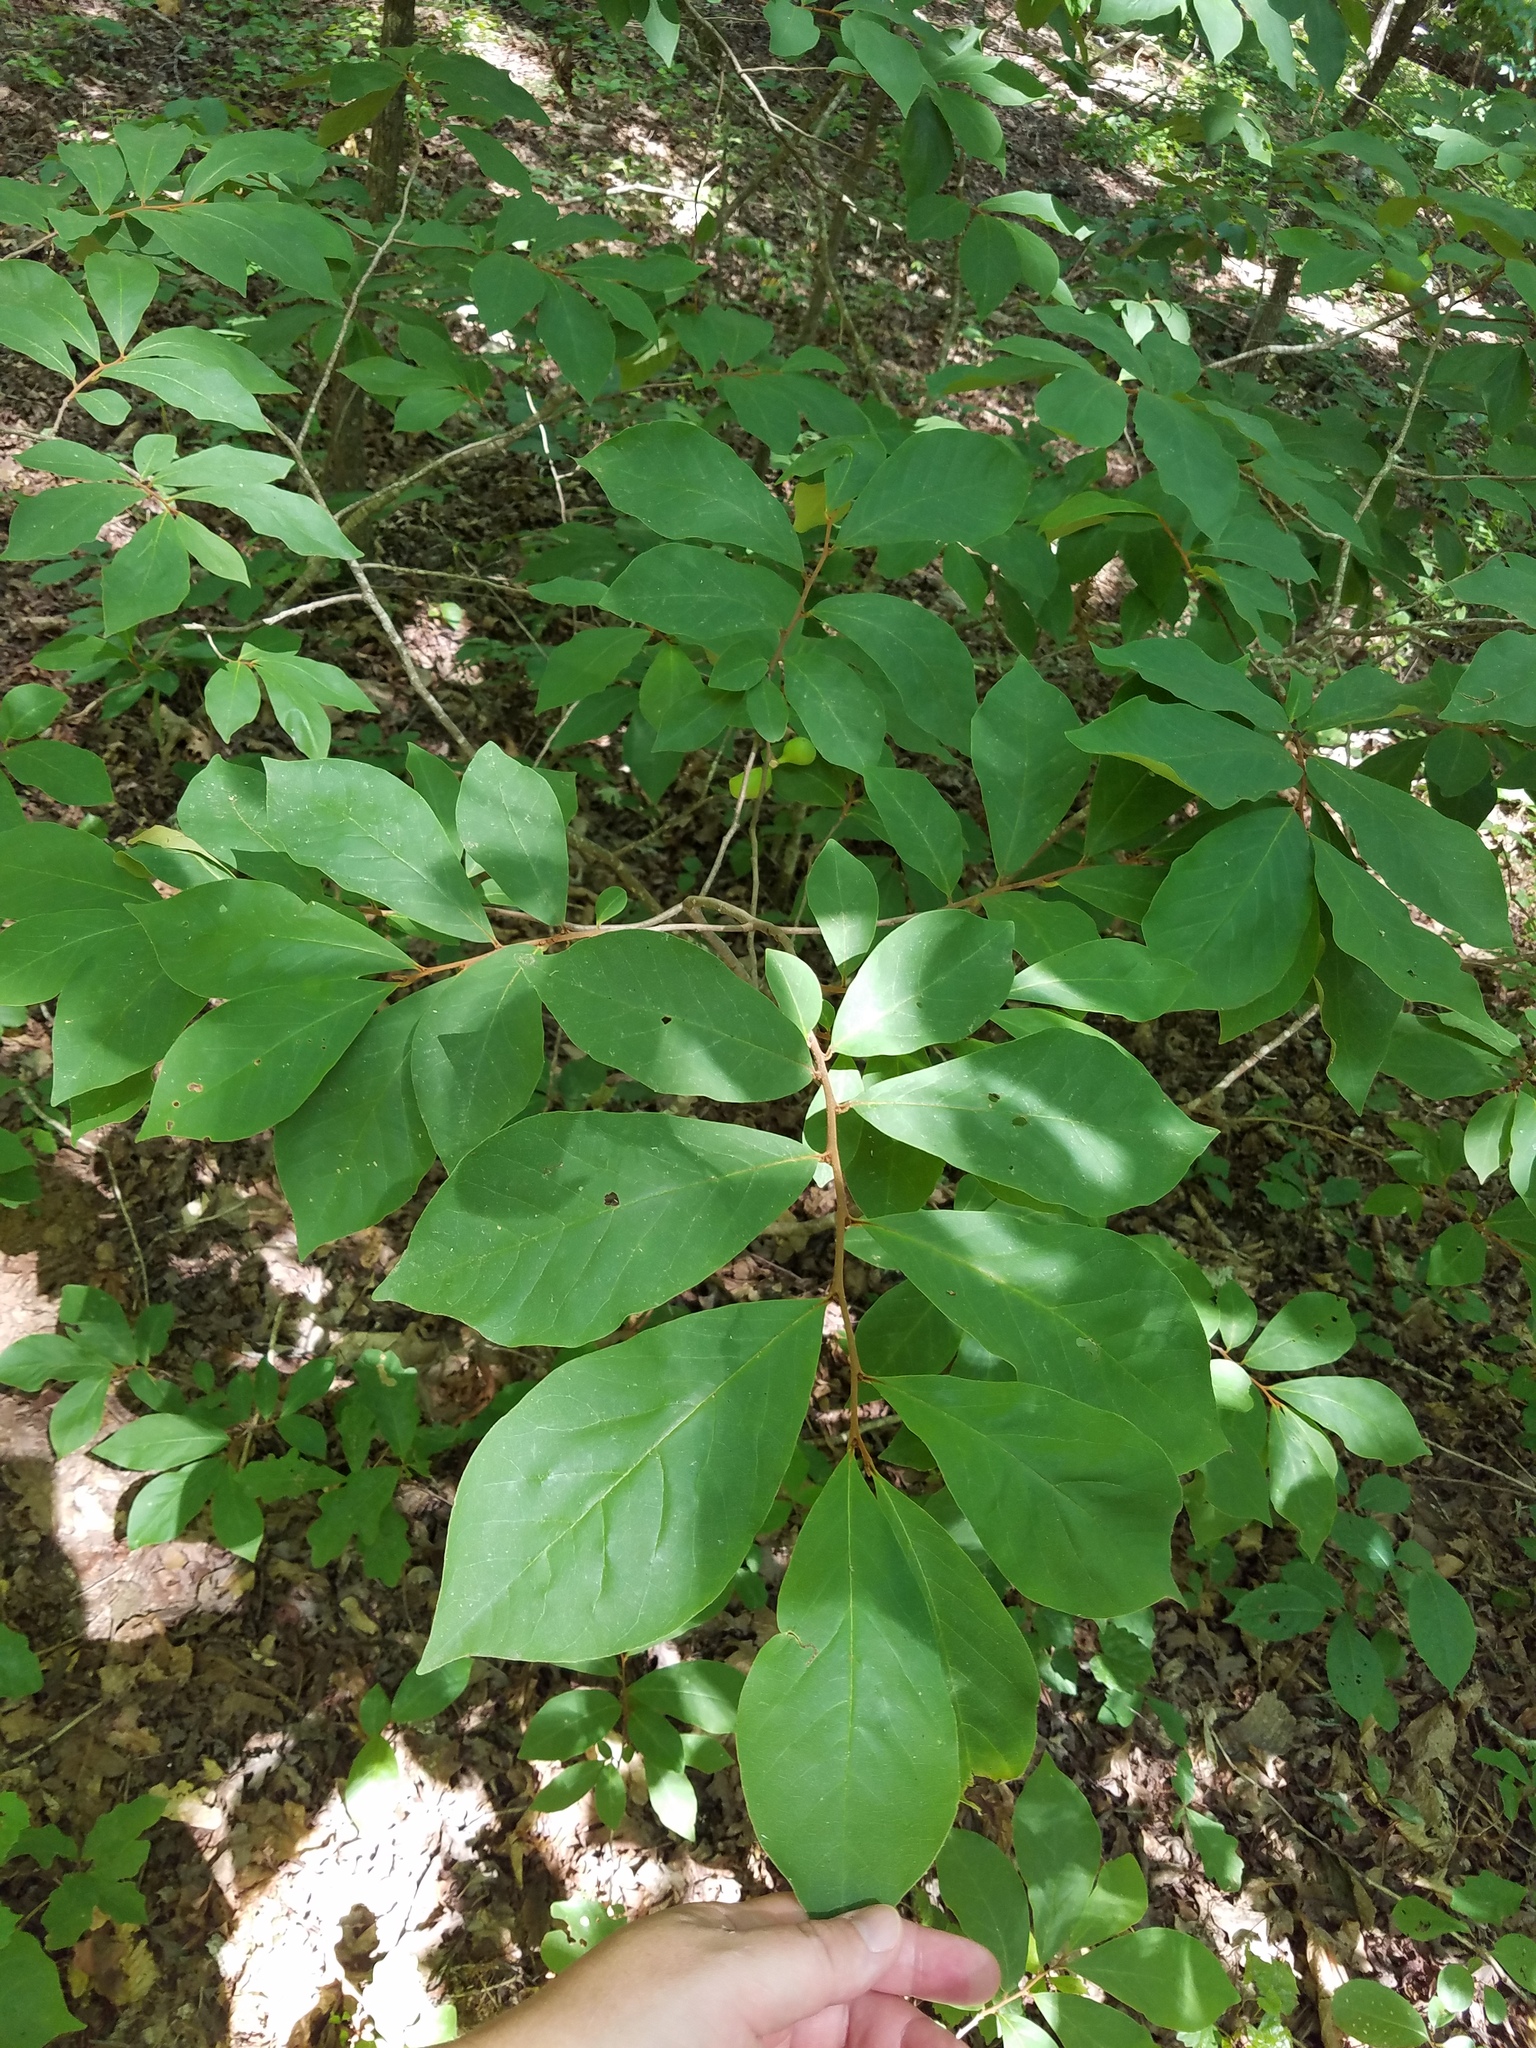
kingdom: Plantae
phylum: Tracheophyta
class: Magnoliopsida
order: Magnoliales
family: Annonaceae
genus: Asimina
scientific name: Asimina parviflora
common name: Dwarf pawpaw
